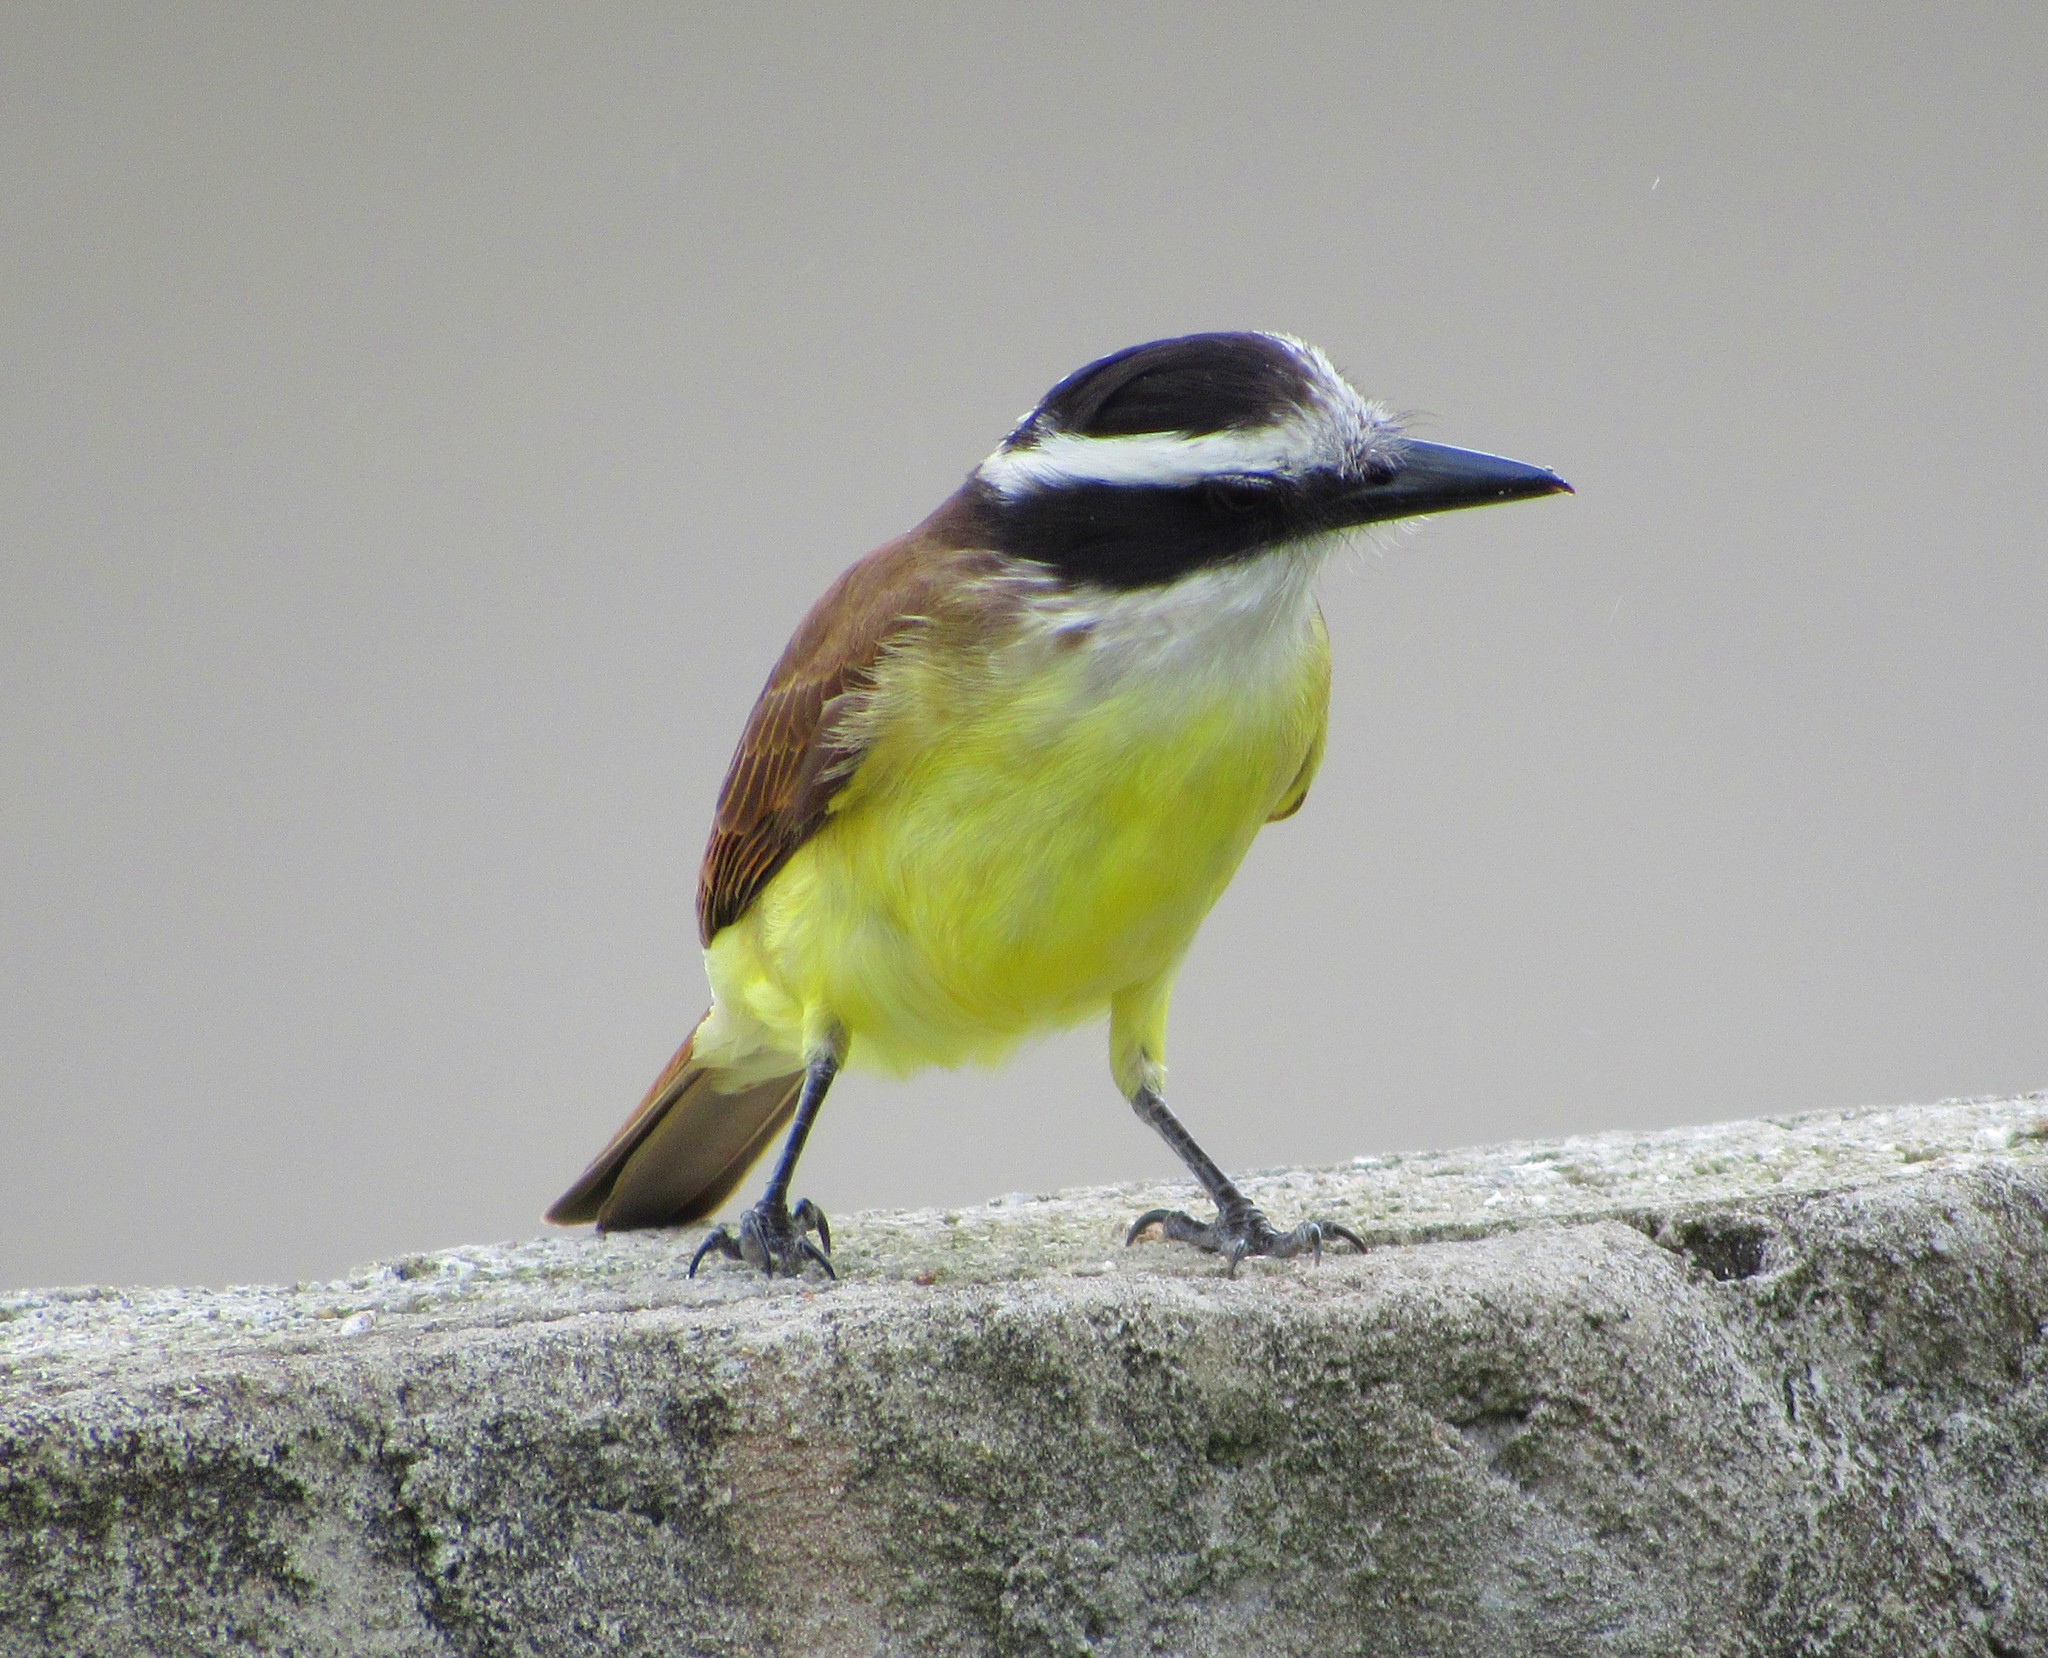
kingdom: Animalia
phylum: Chordata
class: Aves
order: Passeriformes
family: Tyrannidae
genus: Pitangus
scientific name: Pitangus sulphuratus
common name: Great kiskadee
